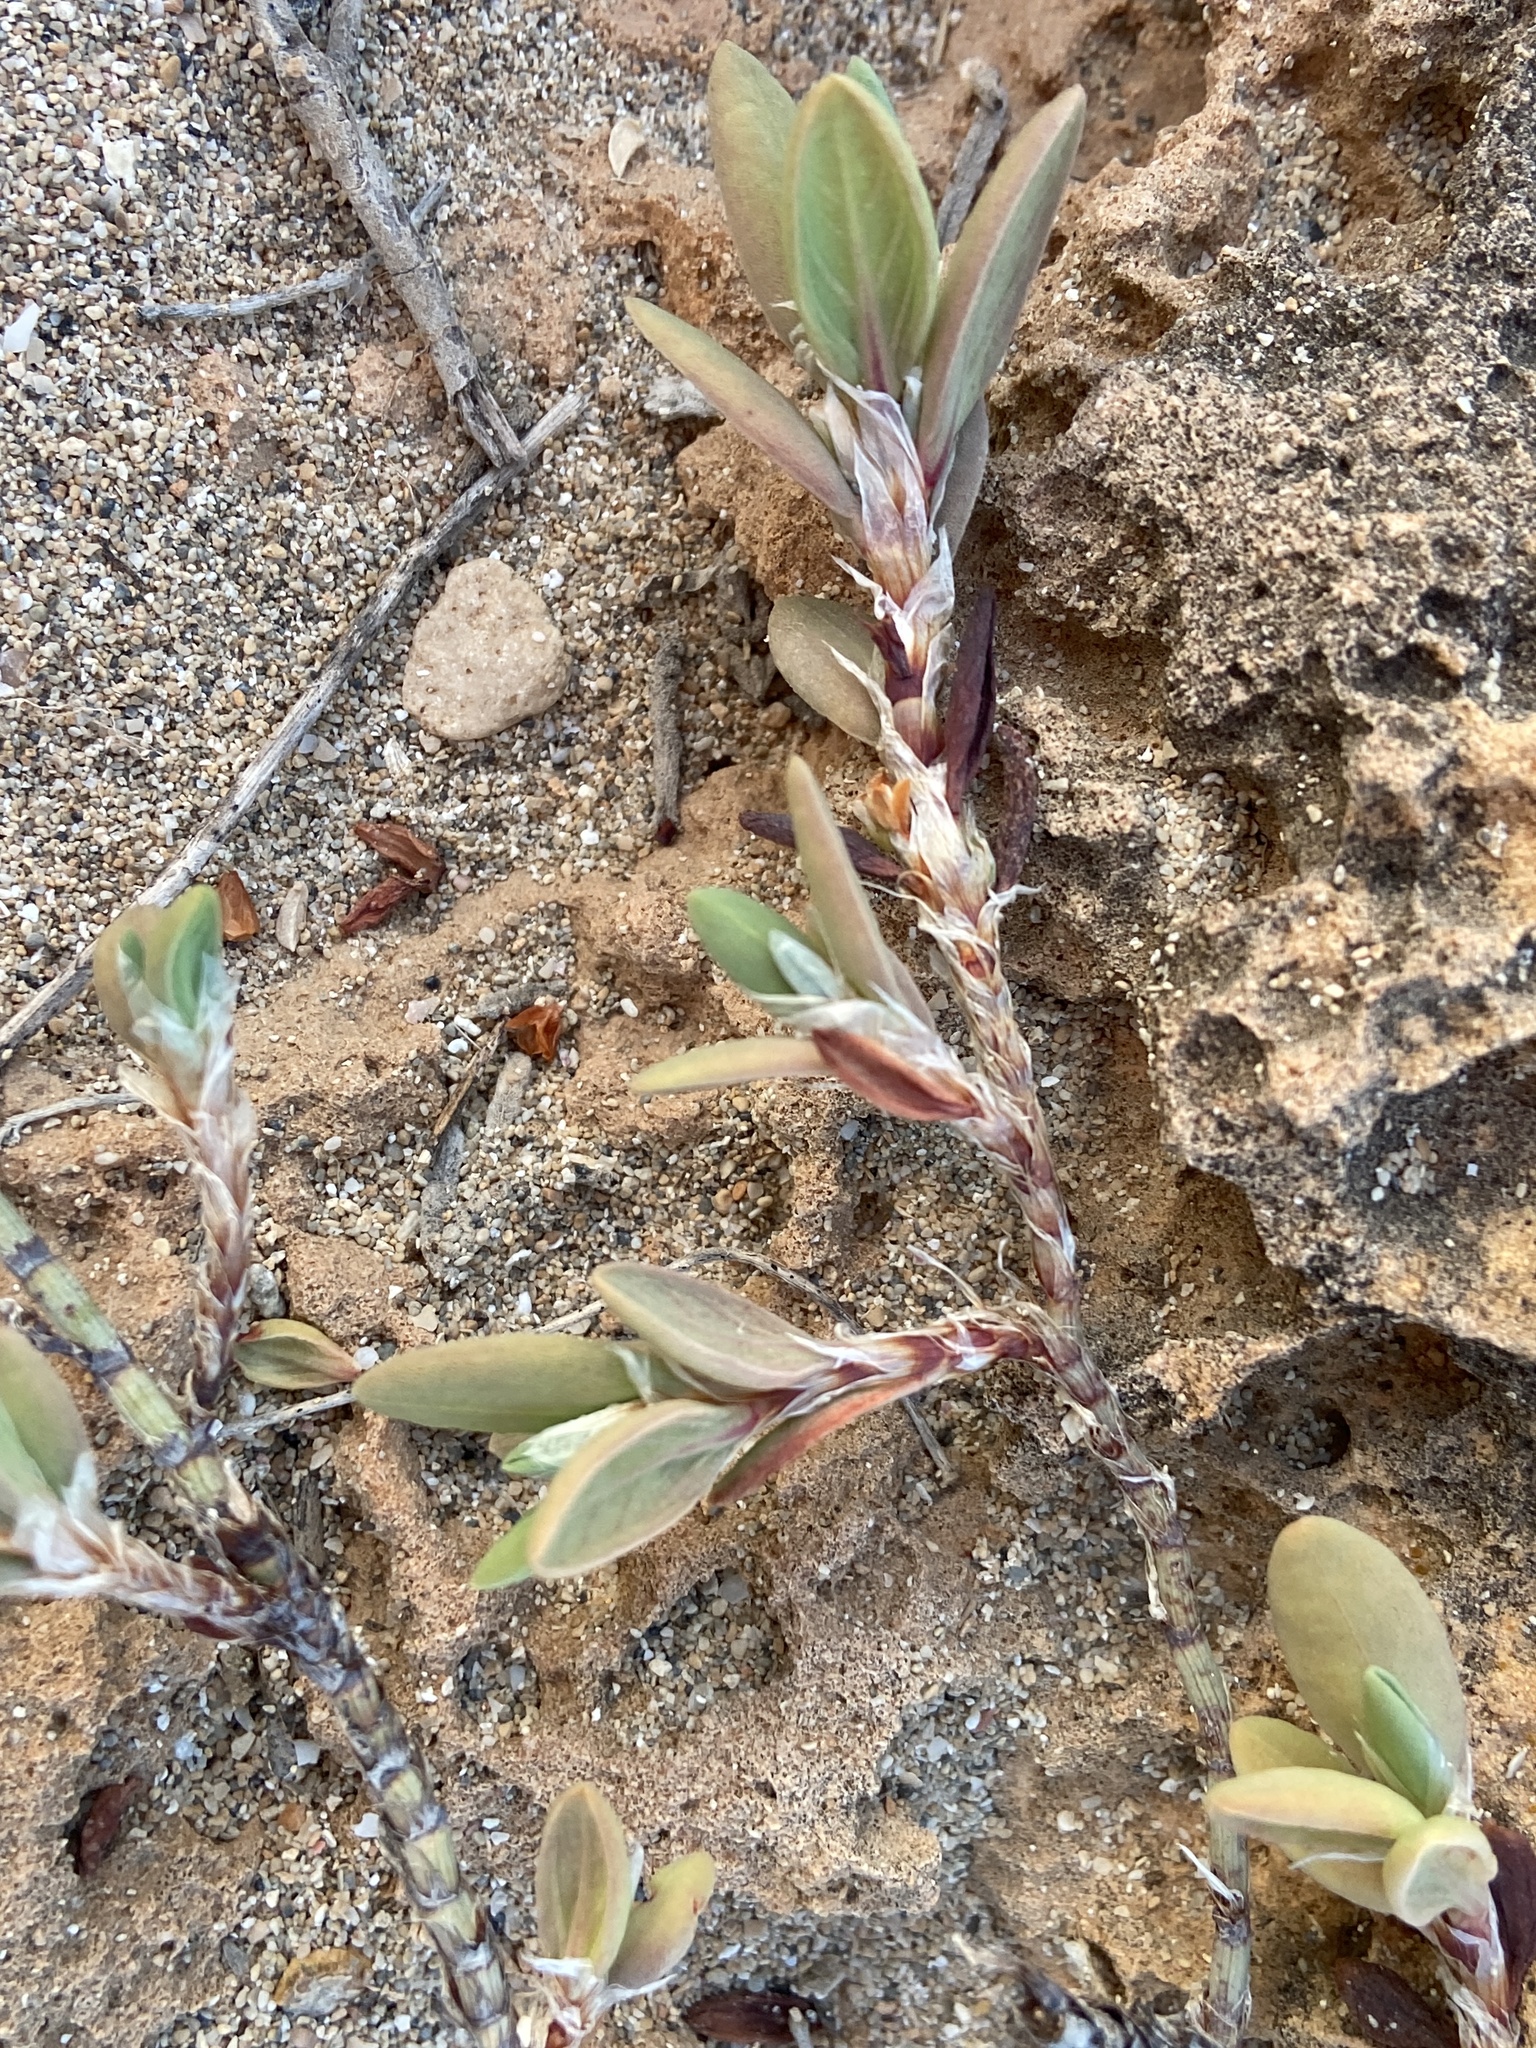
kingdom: Plantae
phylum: Tracheophyta
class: Magnoliopsida
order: Caryophyllales
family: Polygonaceae
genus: Polygonum
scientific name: Polygonum maritimum
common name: Sea knotgrass
